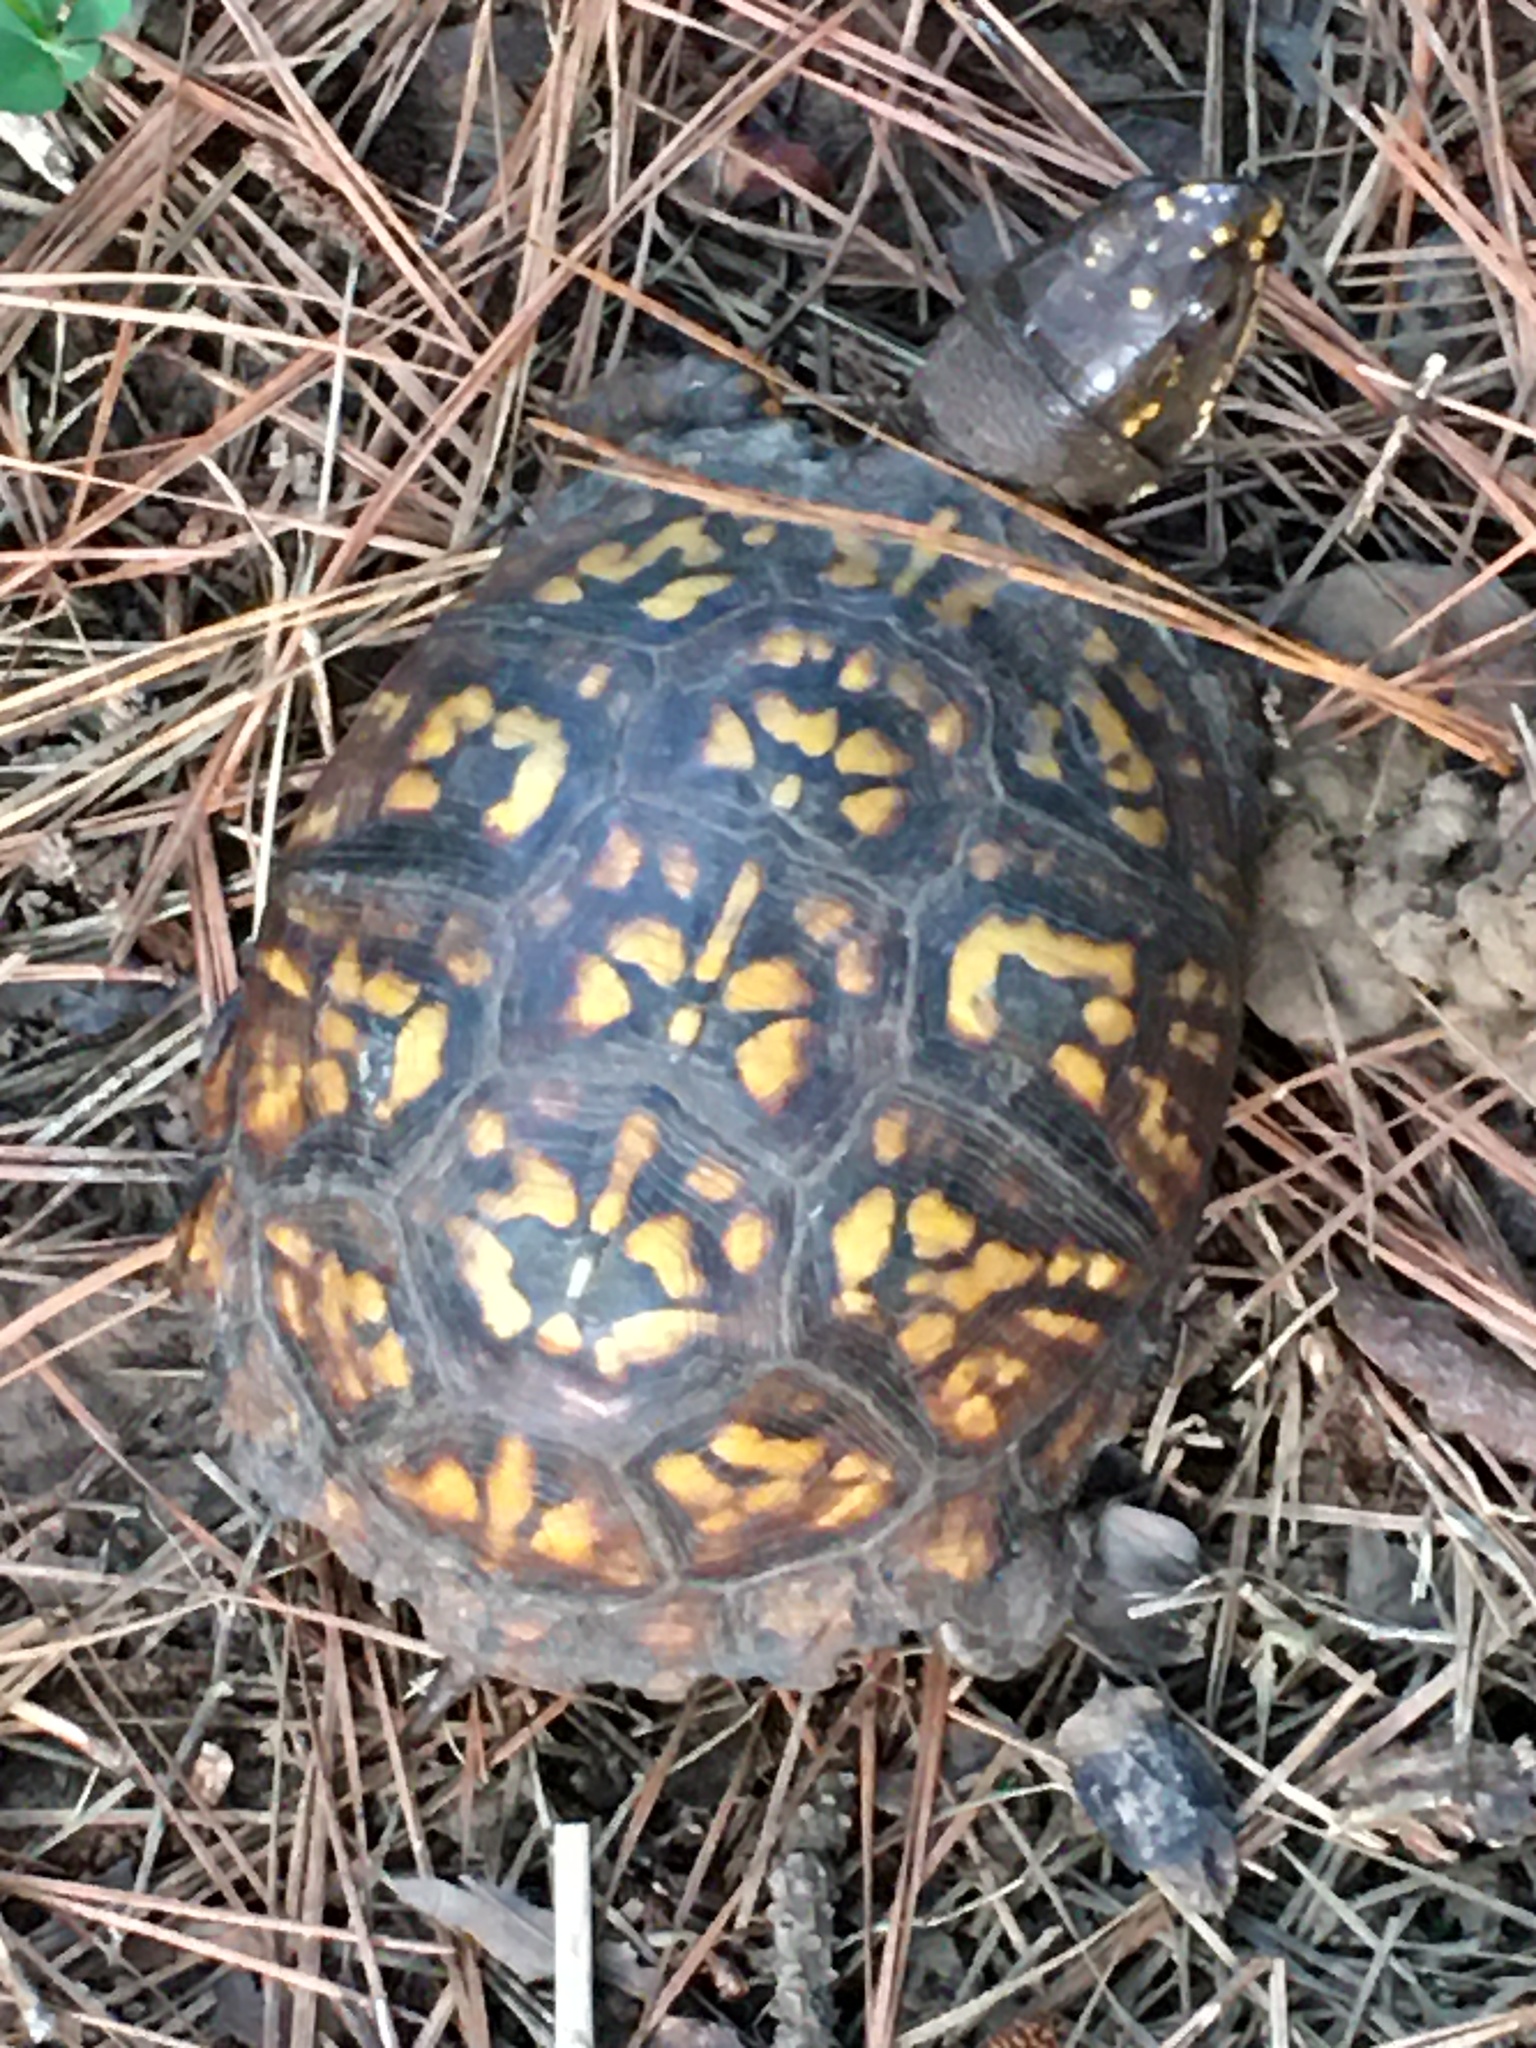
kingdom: Animalia
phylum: Chordata
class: Testudines
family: Emydidae
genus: Terrapene
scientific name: Terrapene carolina
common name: Common box turtle
